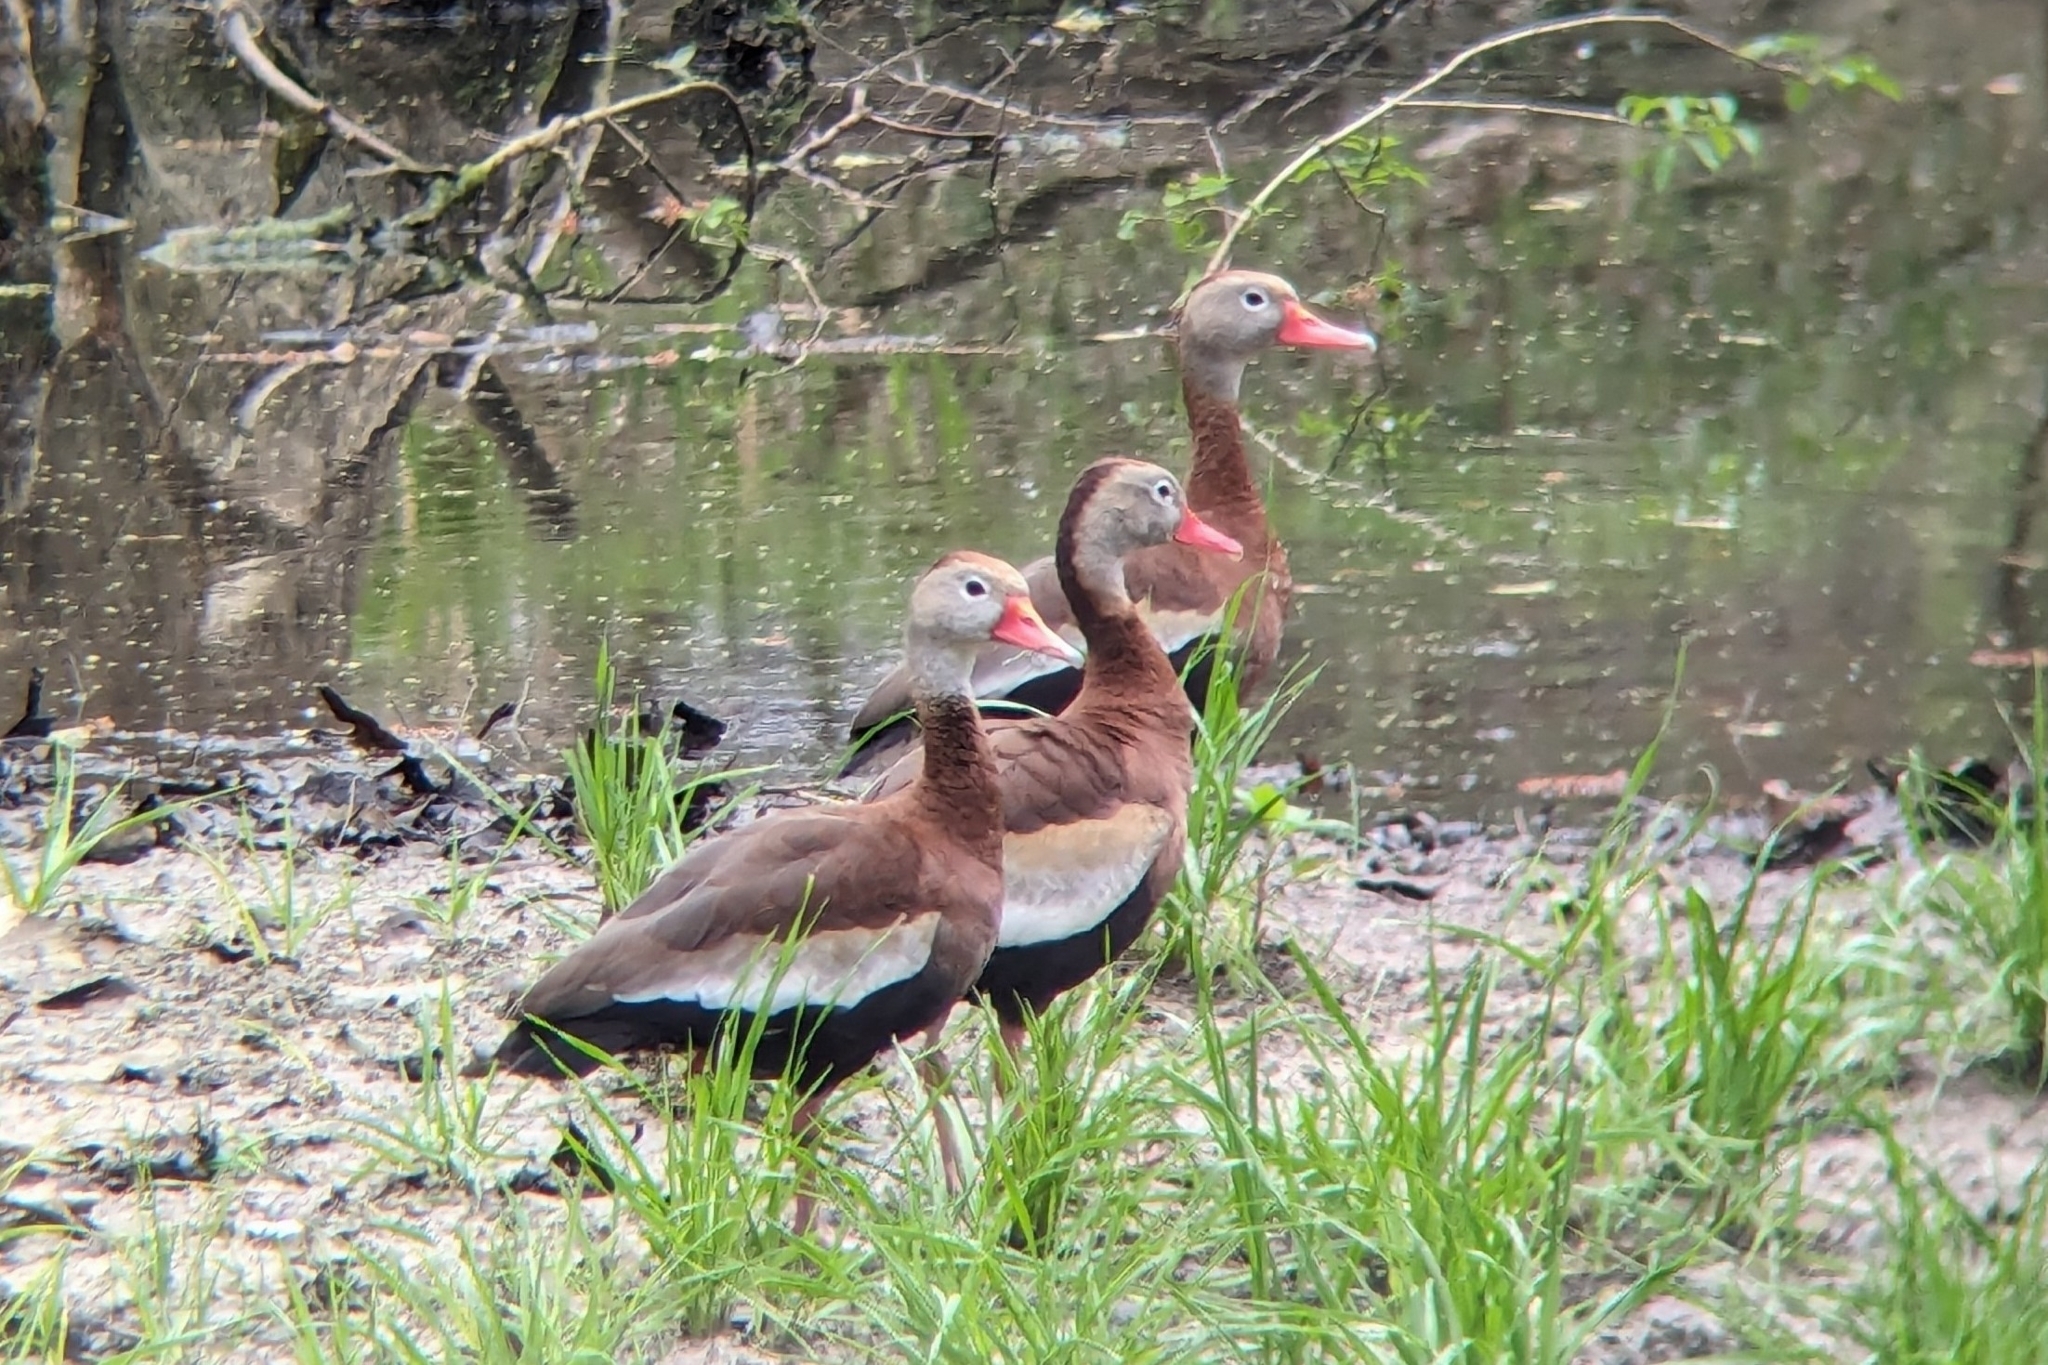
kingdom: Animalia
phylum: Chordata
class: Aves
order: Anseriformes
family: Anatidae
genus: Dendrocygna
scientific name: Dendrocygna autumnalis
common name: Black-bellied whistling duck
